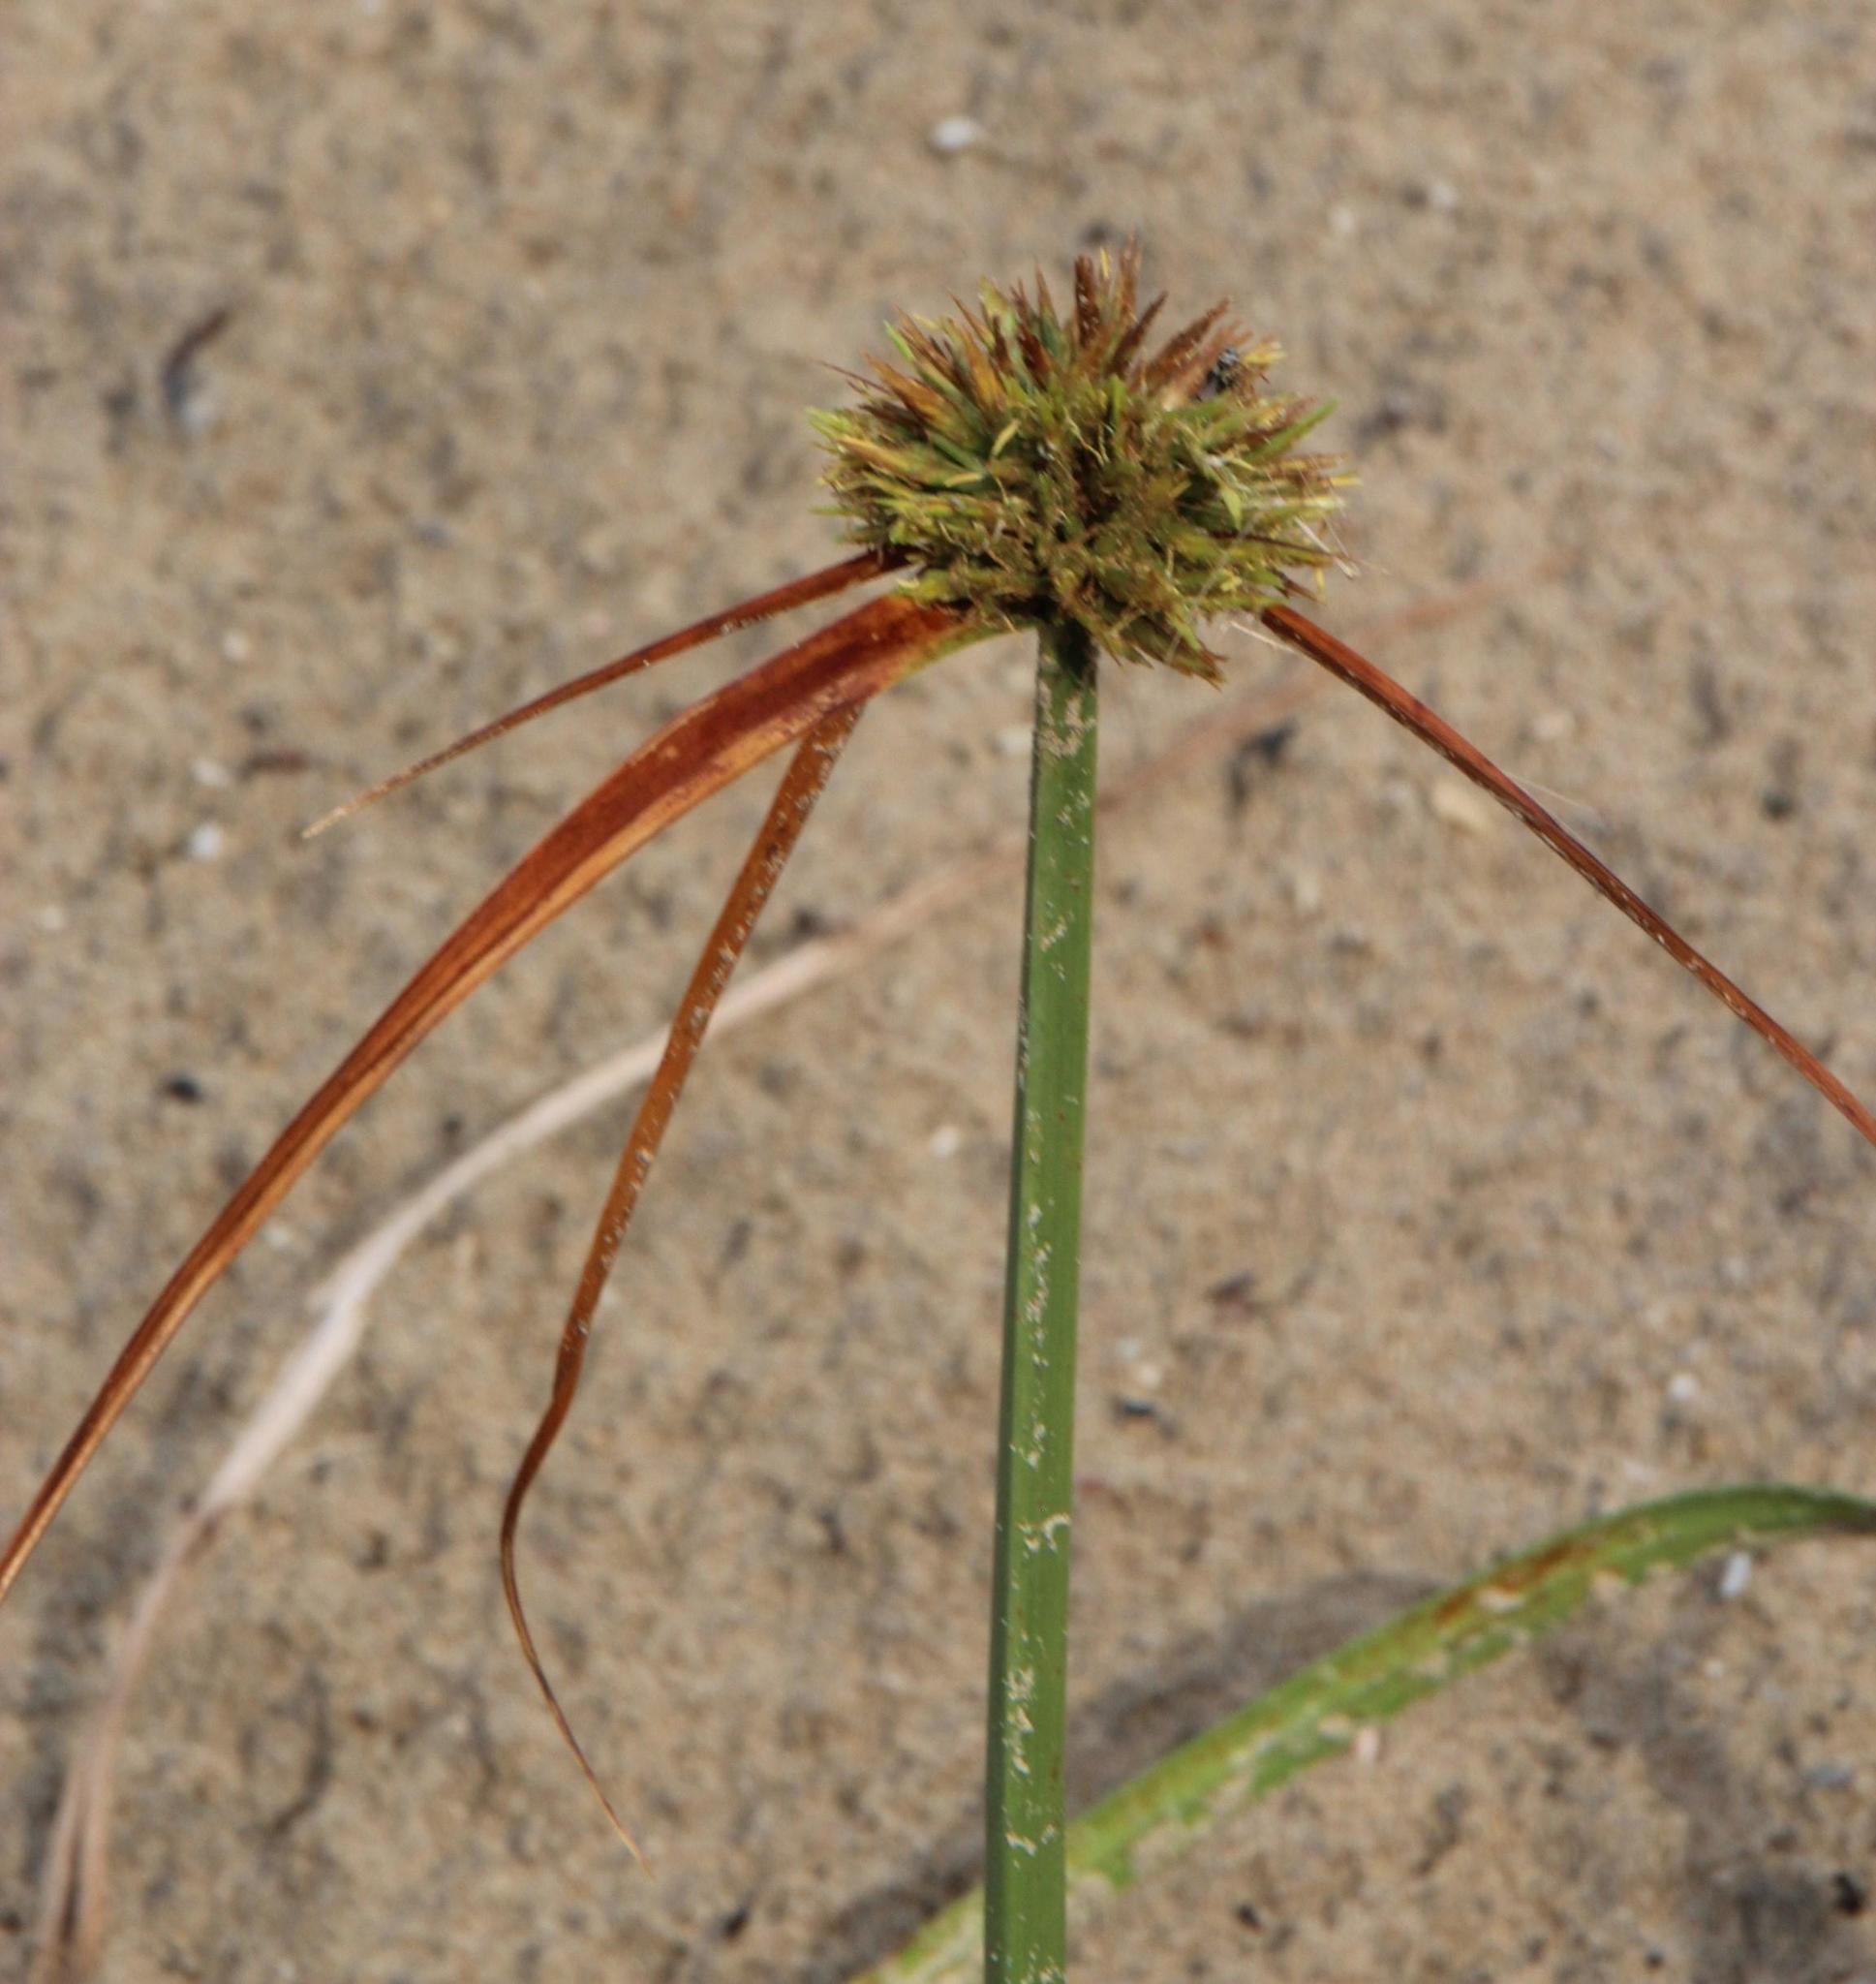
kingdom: Plantae
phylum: Tracheophyta
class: Liliopsida
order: Poales
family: Cyperaceae
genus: Cyperus
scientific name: Cyperus crassipes
